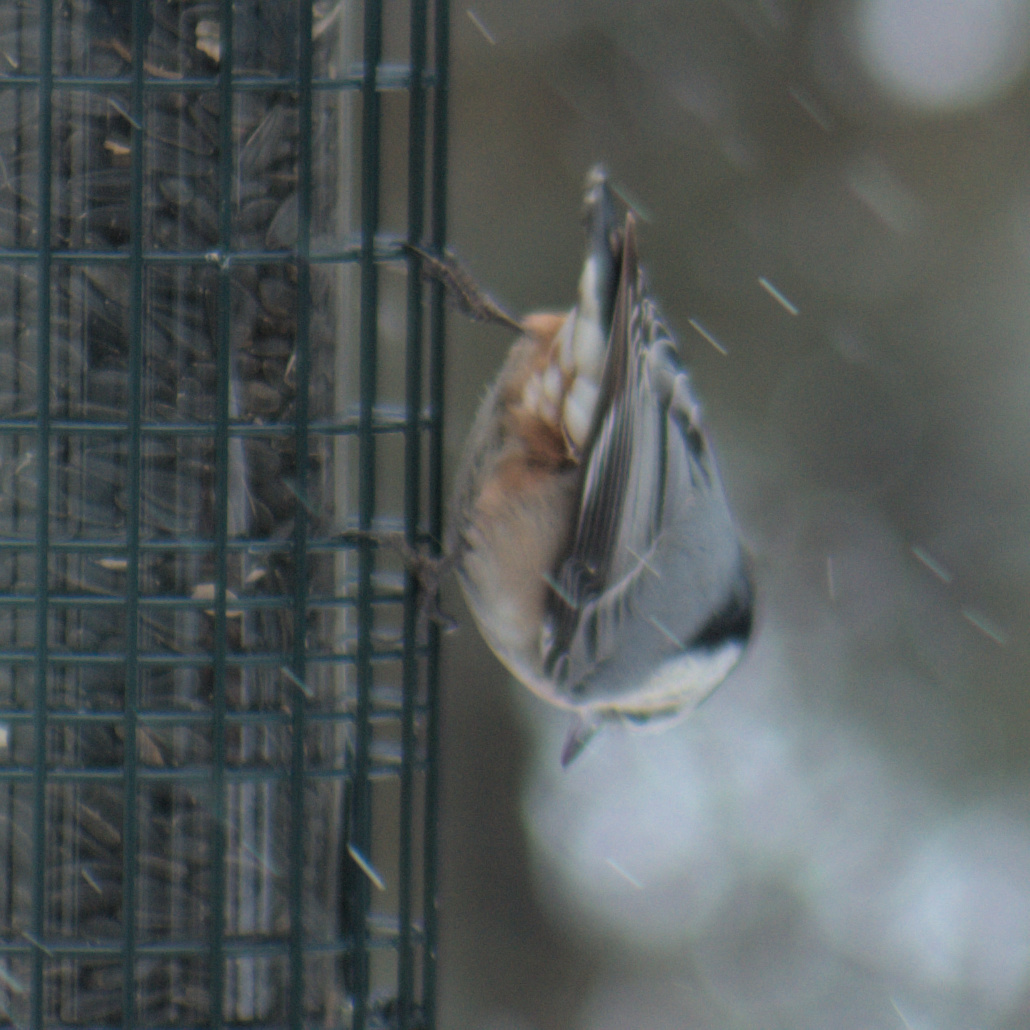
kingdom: Animalia
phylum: Chordata
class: Aves
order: Passeriformes
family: Sittidae
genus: Sitta
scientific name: Sitta carolinensis
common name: White-breasted nuthatch
